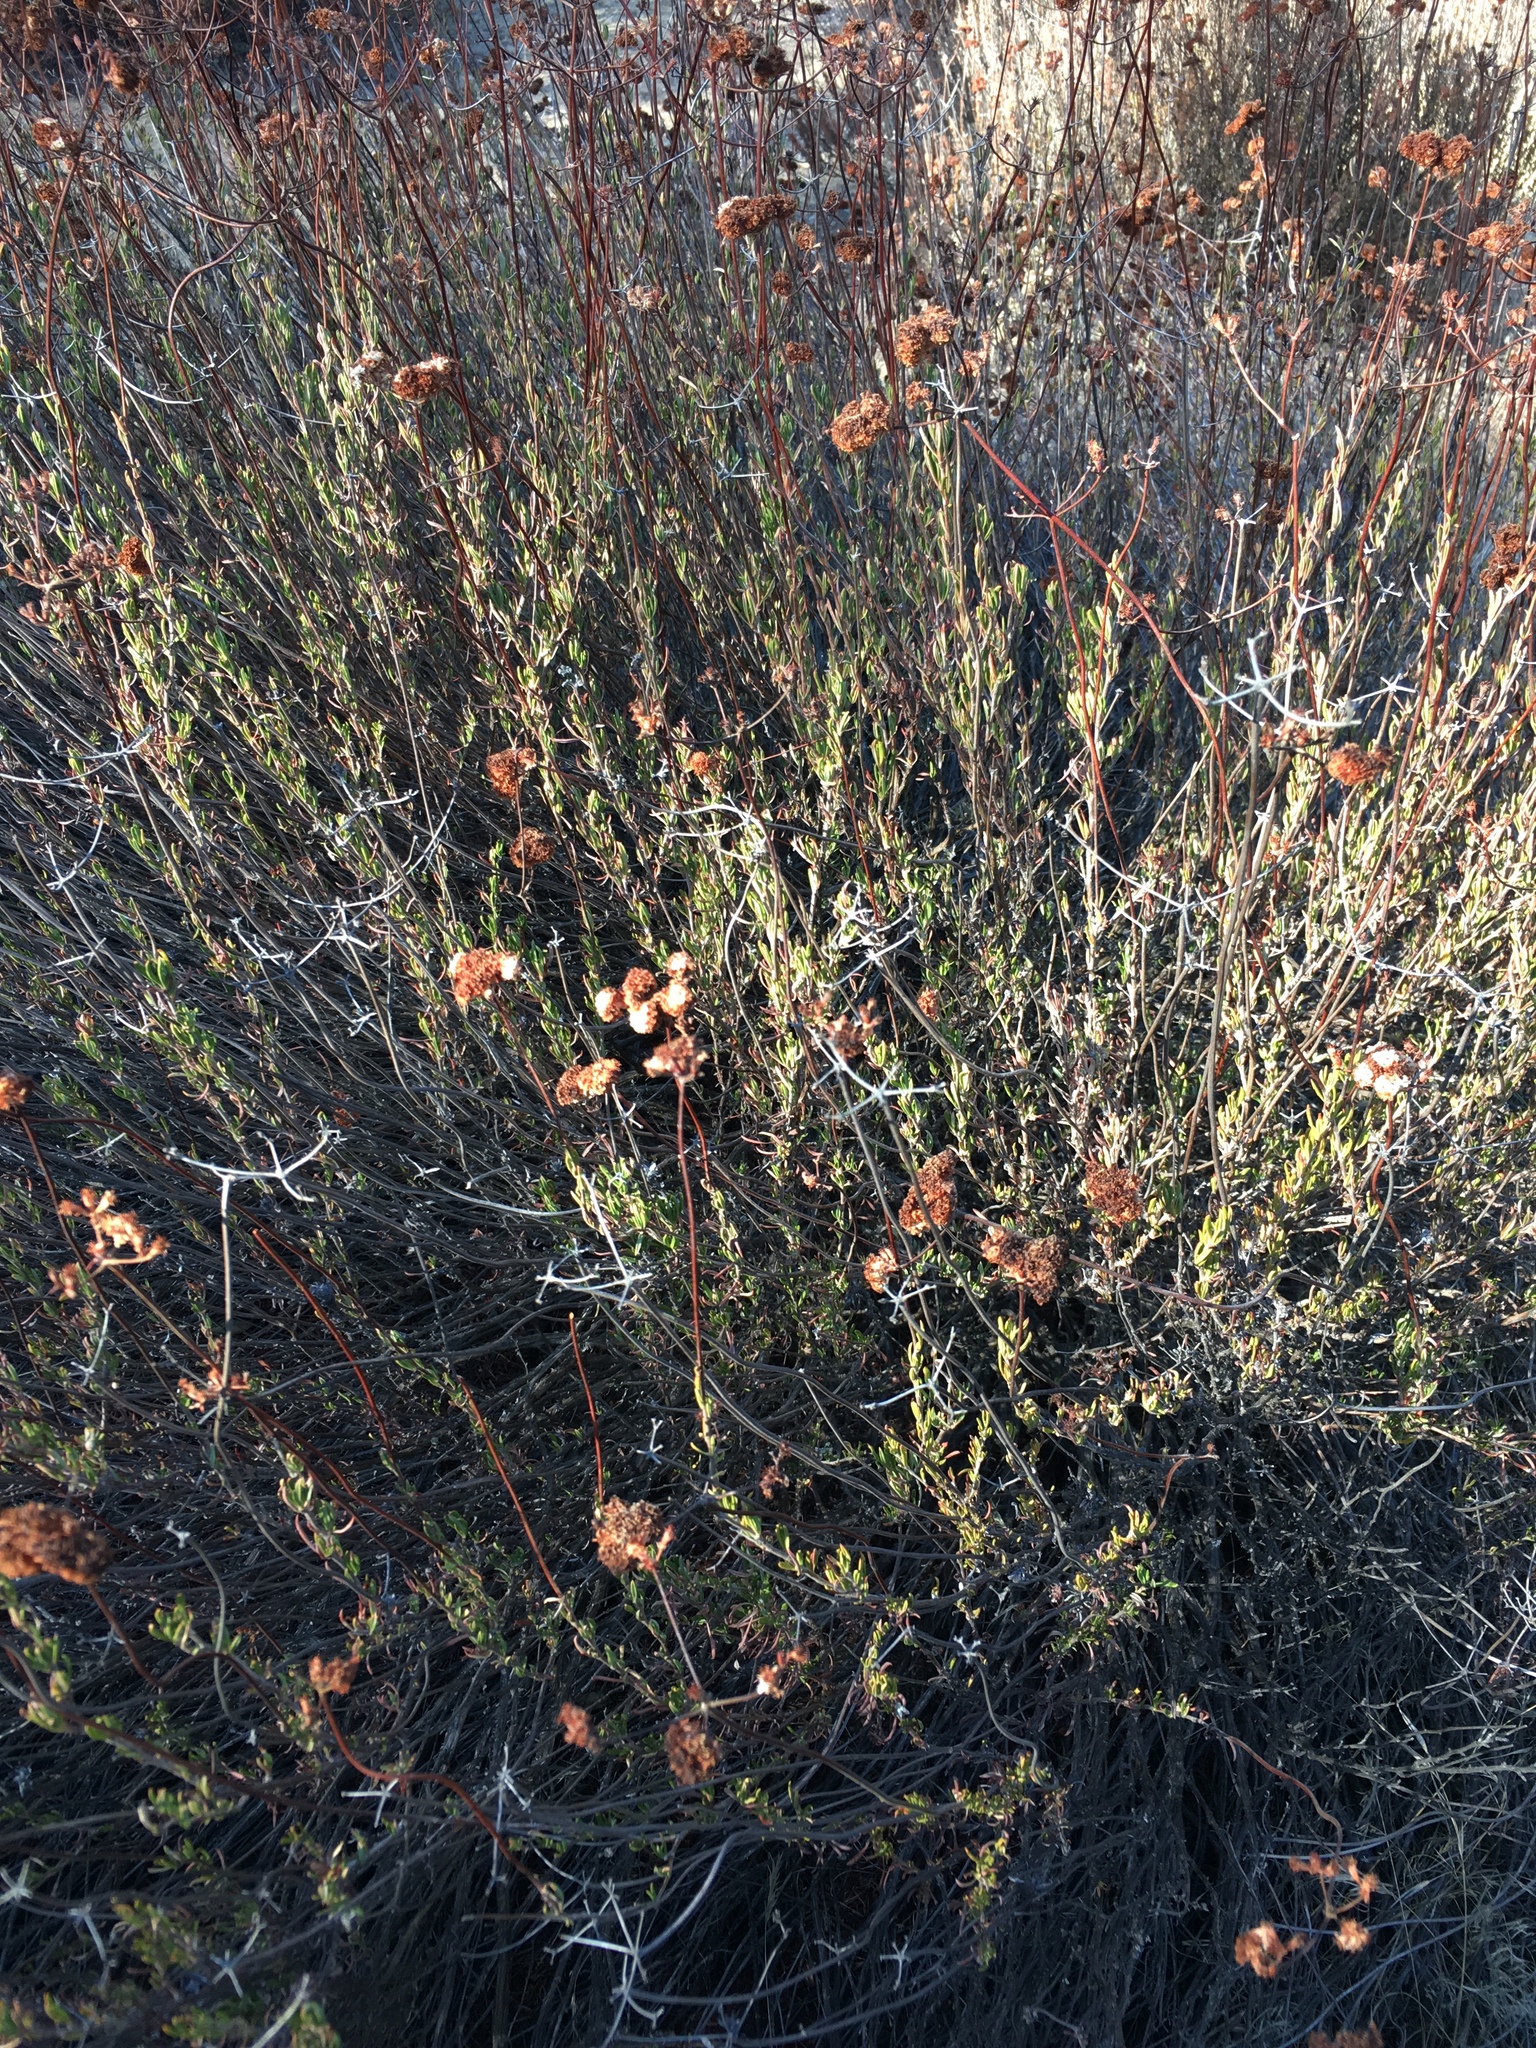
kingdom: Plantae
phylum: Tracheophyta
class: Magnoliopsida
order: Caryophyllales
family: Polygonaceae
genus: Eriogonum
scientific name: Eriogonum fasciculatum
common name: California wild buckwheat
